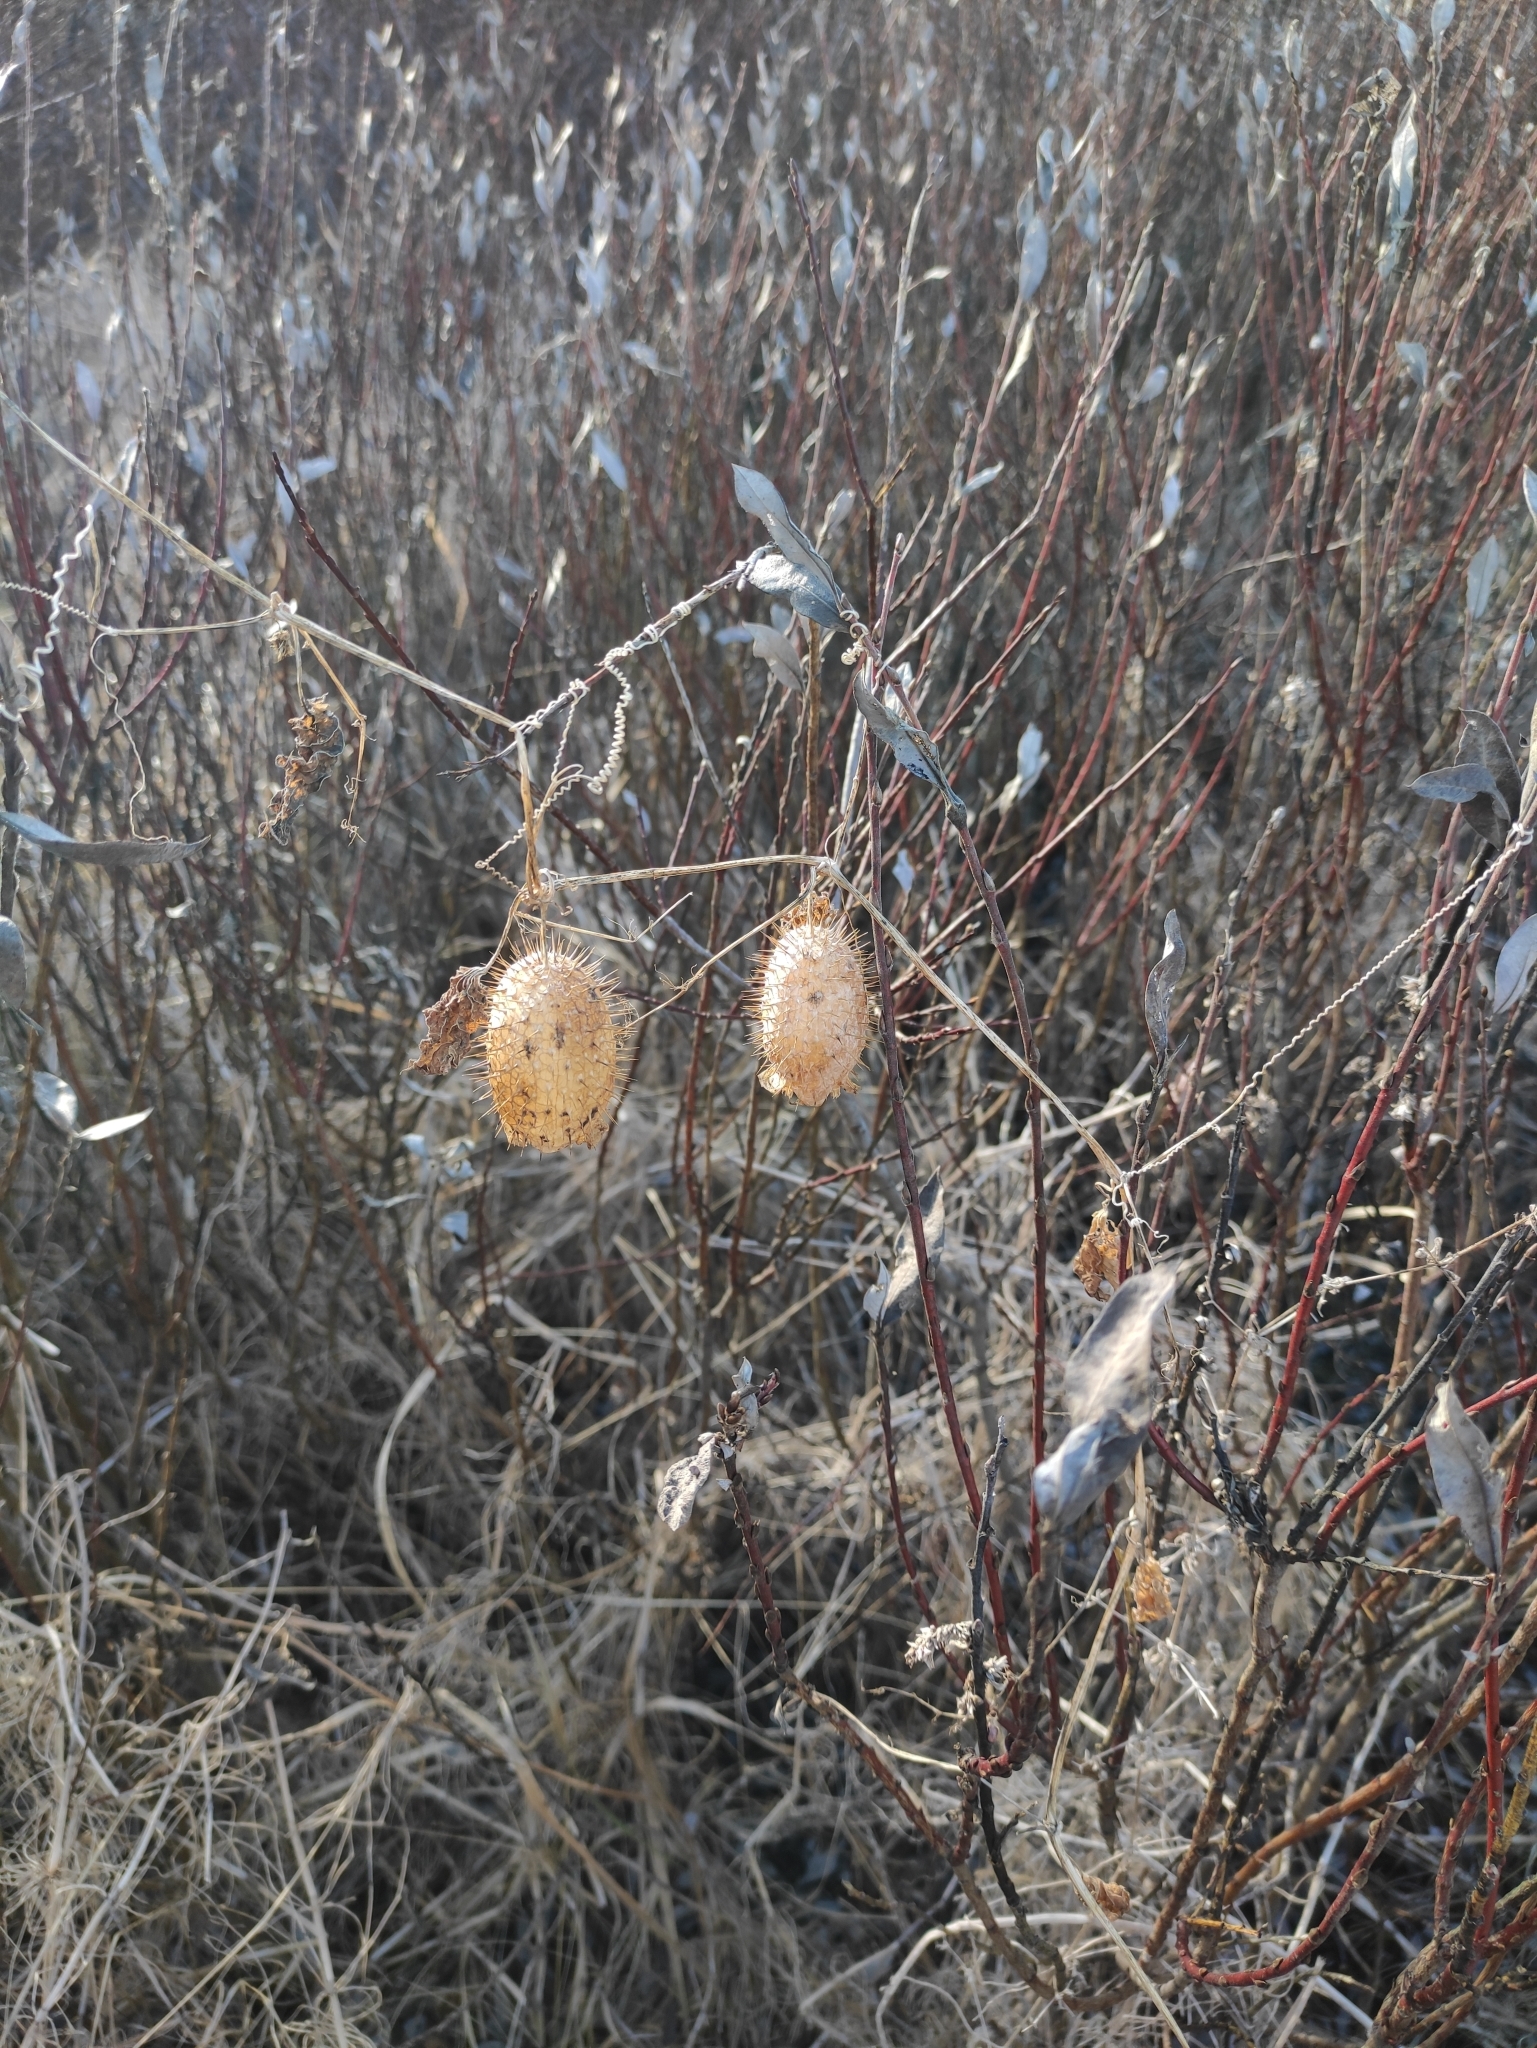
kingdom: Plantae
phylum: Tracheophyta
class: Magnoliopsida
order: Cucurbitales
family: Cucurbitaceae
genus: Echinocystis
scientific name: Echinocystis lobata
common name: Wild cucumber
